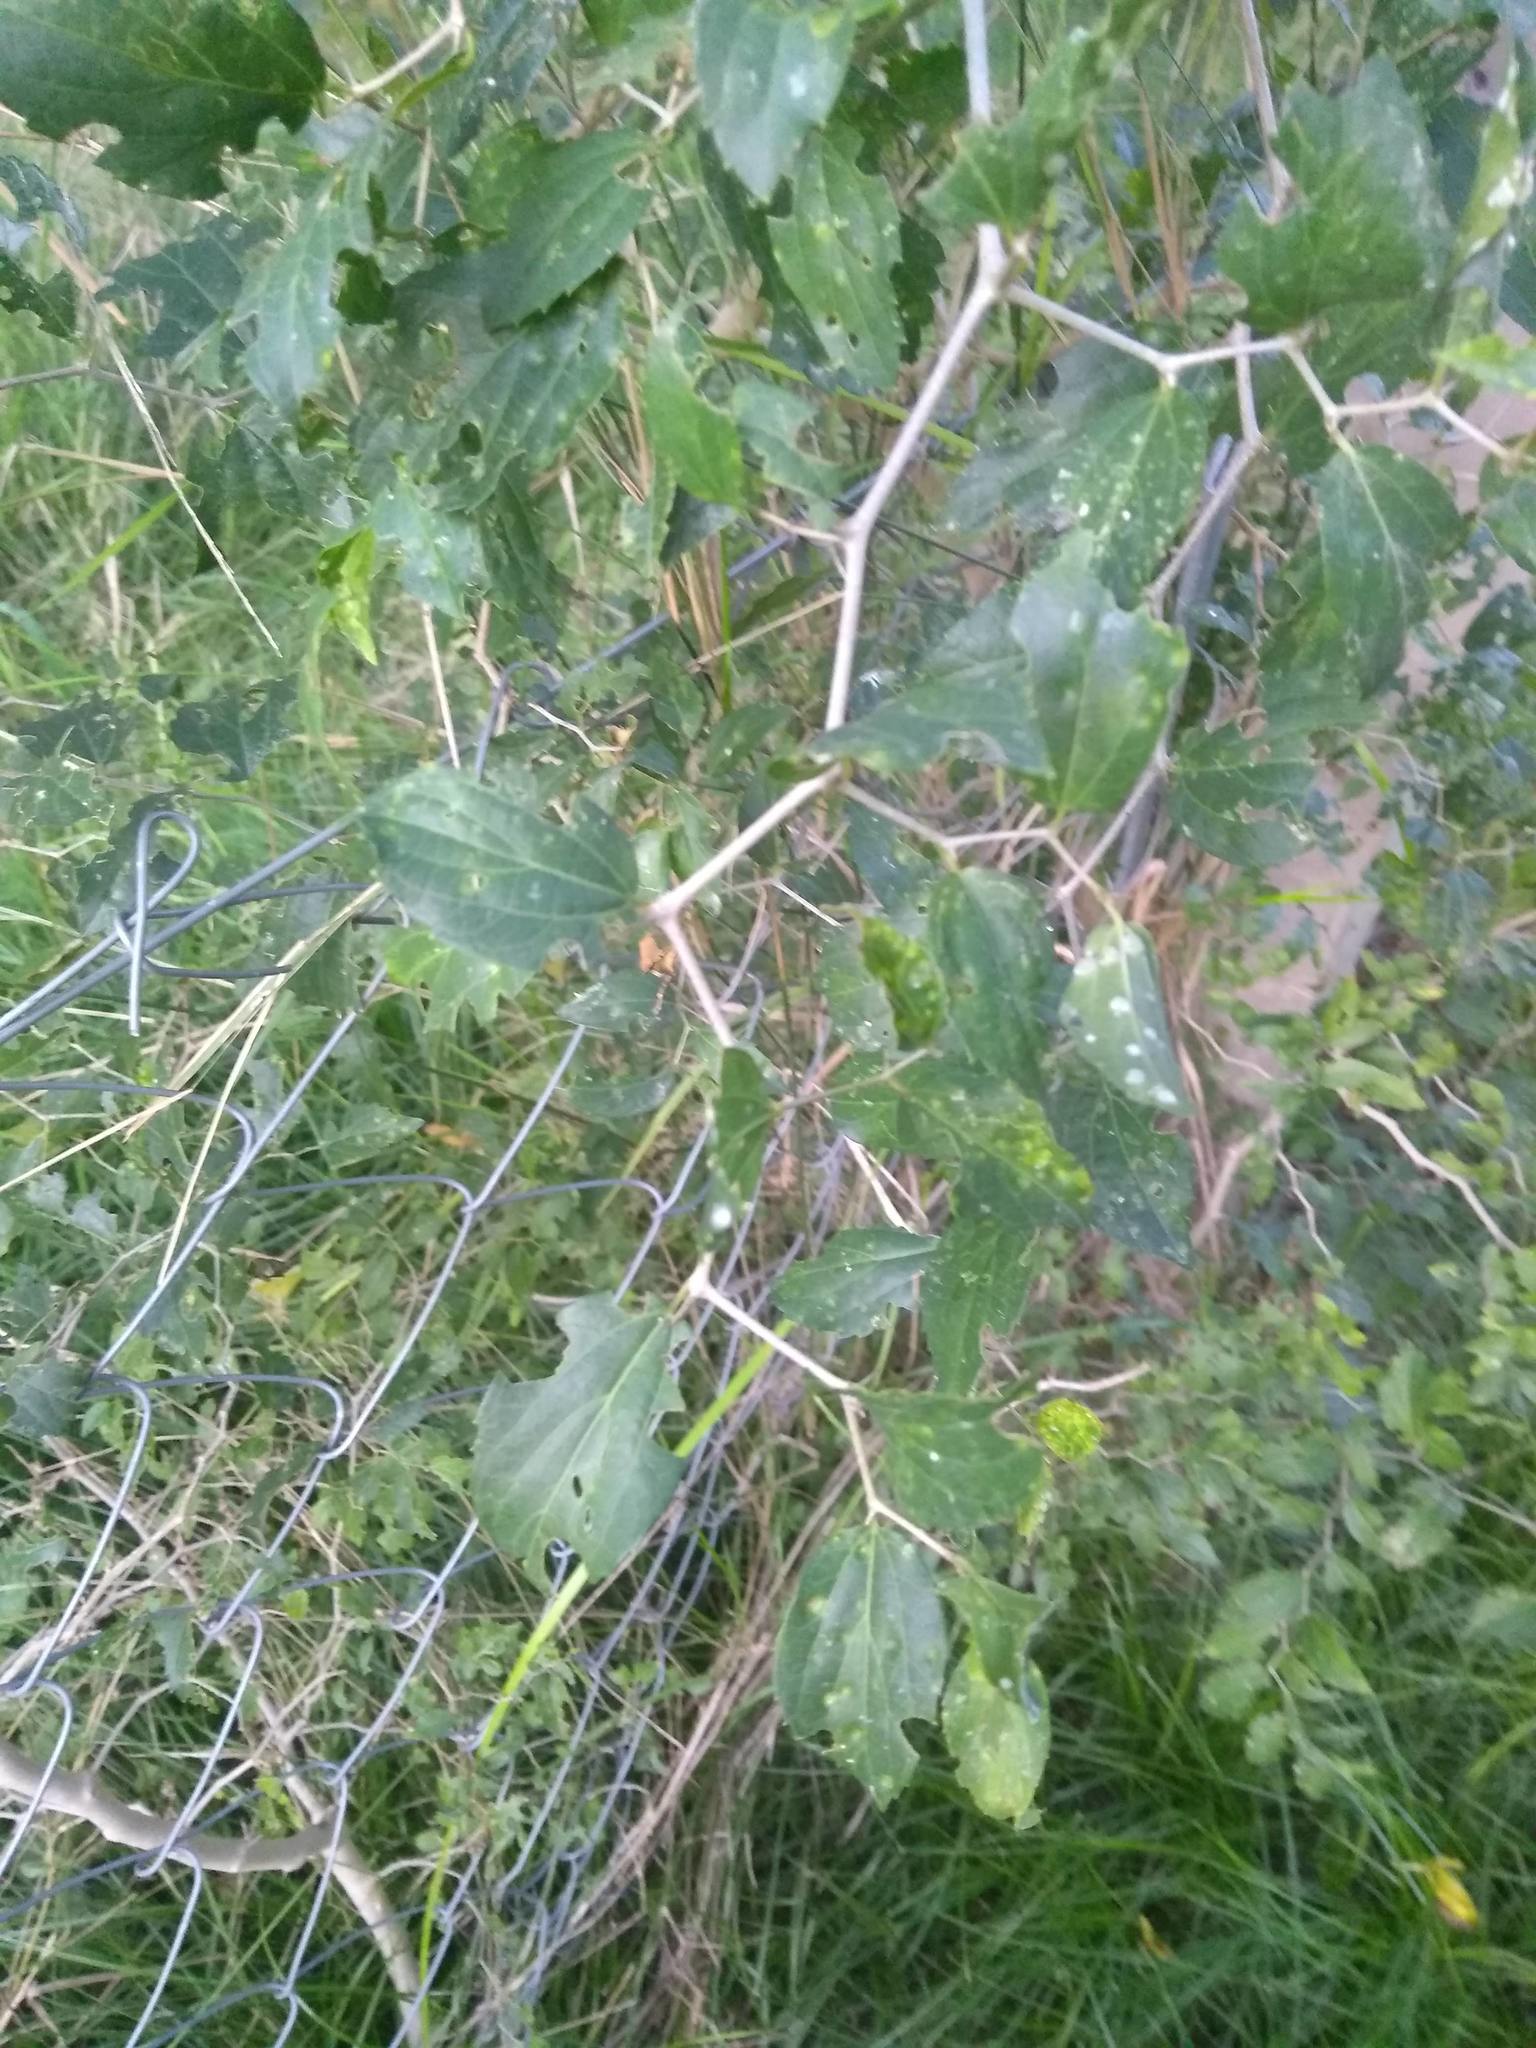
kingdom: Plantae
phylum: Tracheophyta
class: Magnoliopsida
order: Rosales
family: Cannabaceae
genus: Celtis
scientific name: Celtis tala
